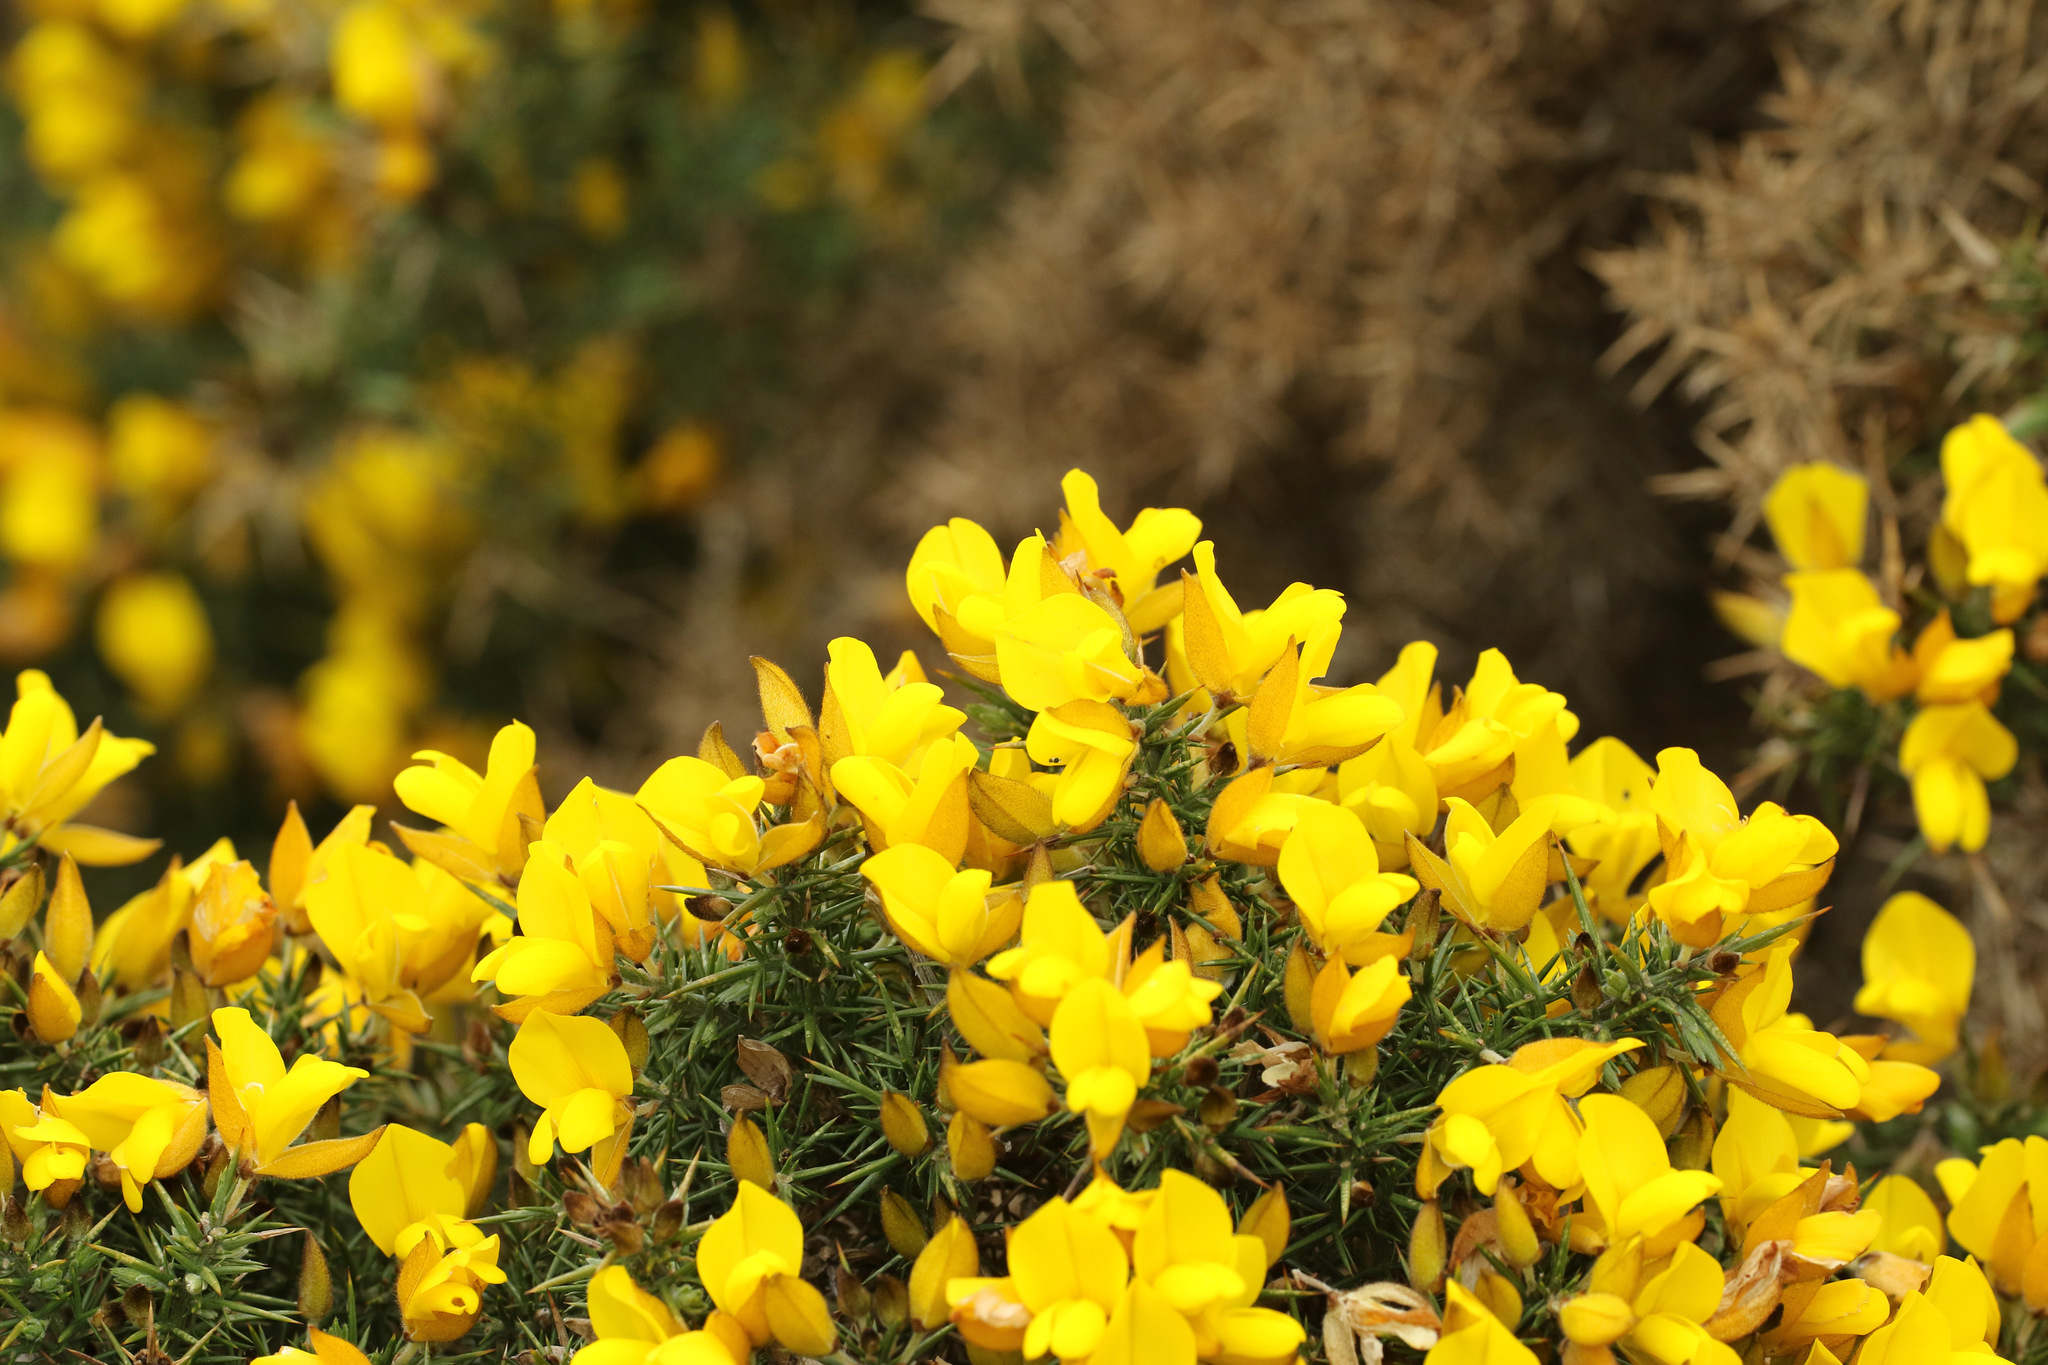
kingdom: Plantae
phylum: Tracheophyta
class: Magnoliopsida
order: Fabales
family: Fabaceae
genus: Ulex
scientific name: Ulex europaeus
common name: Common gorse
